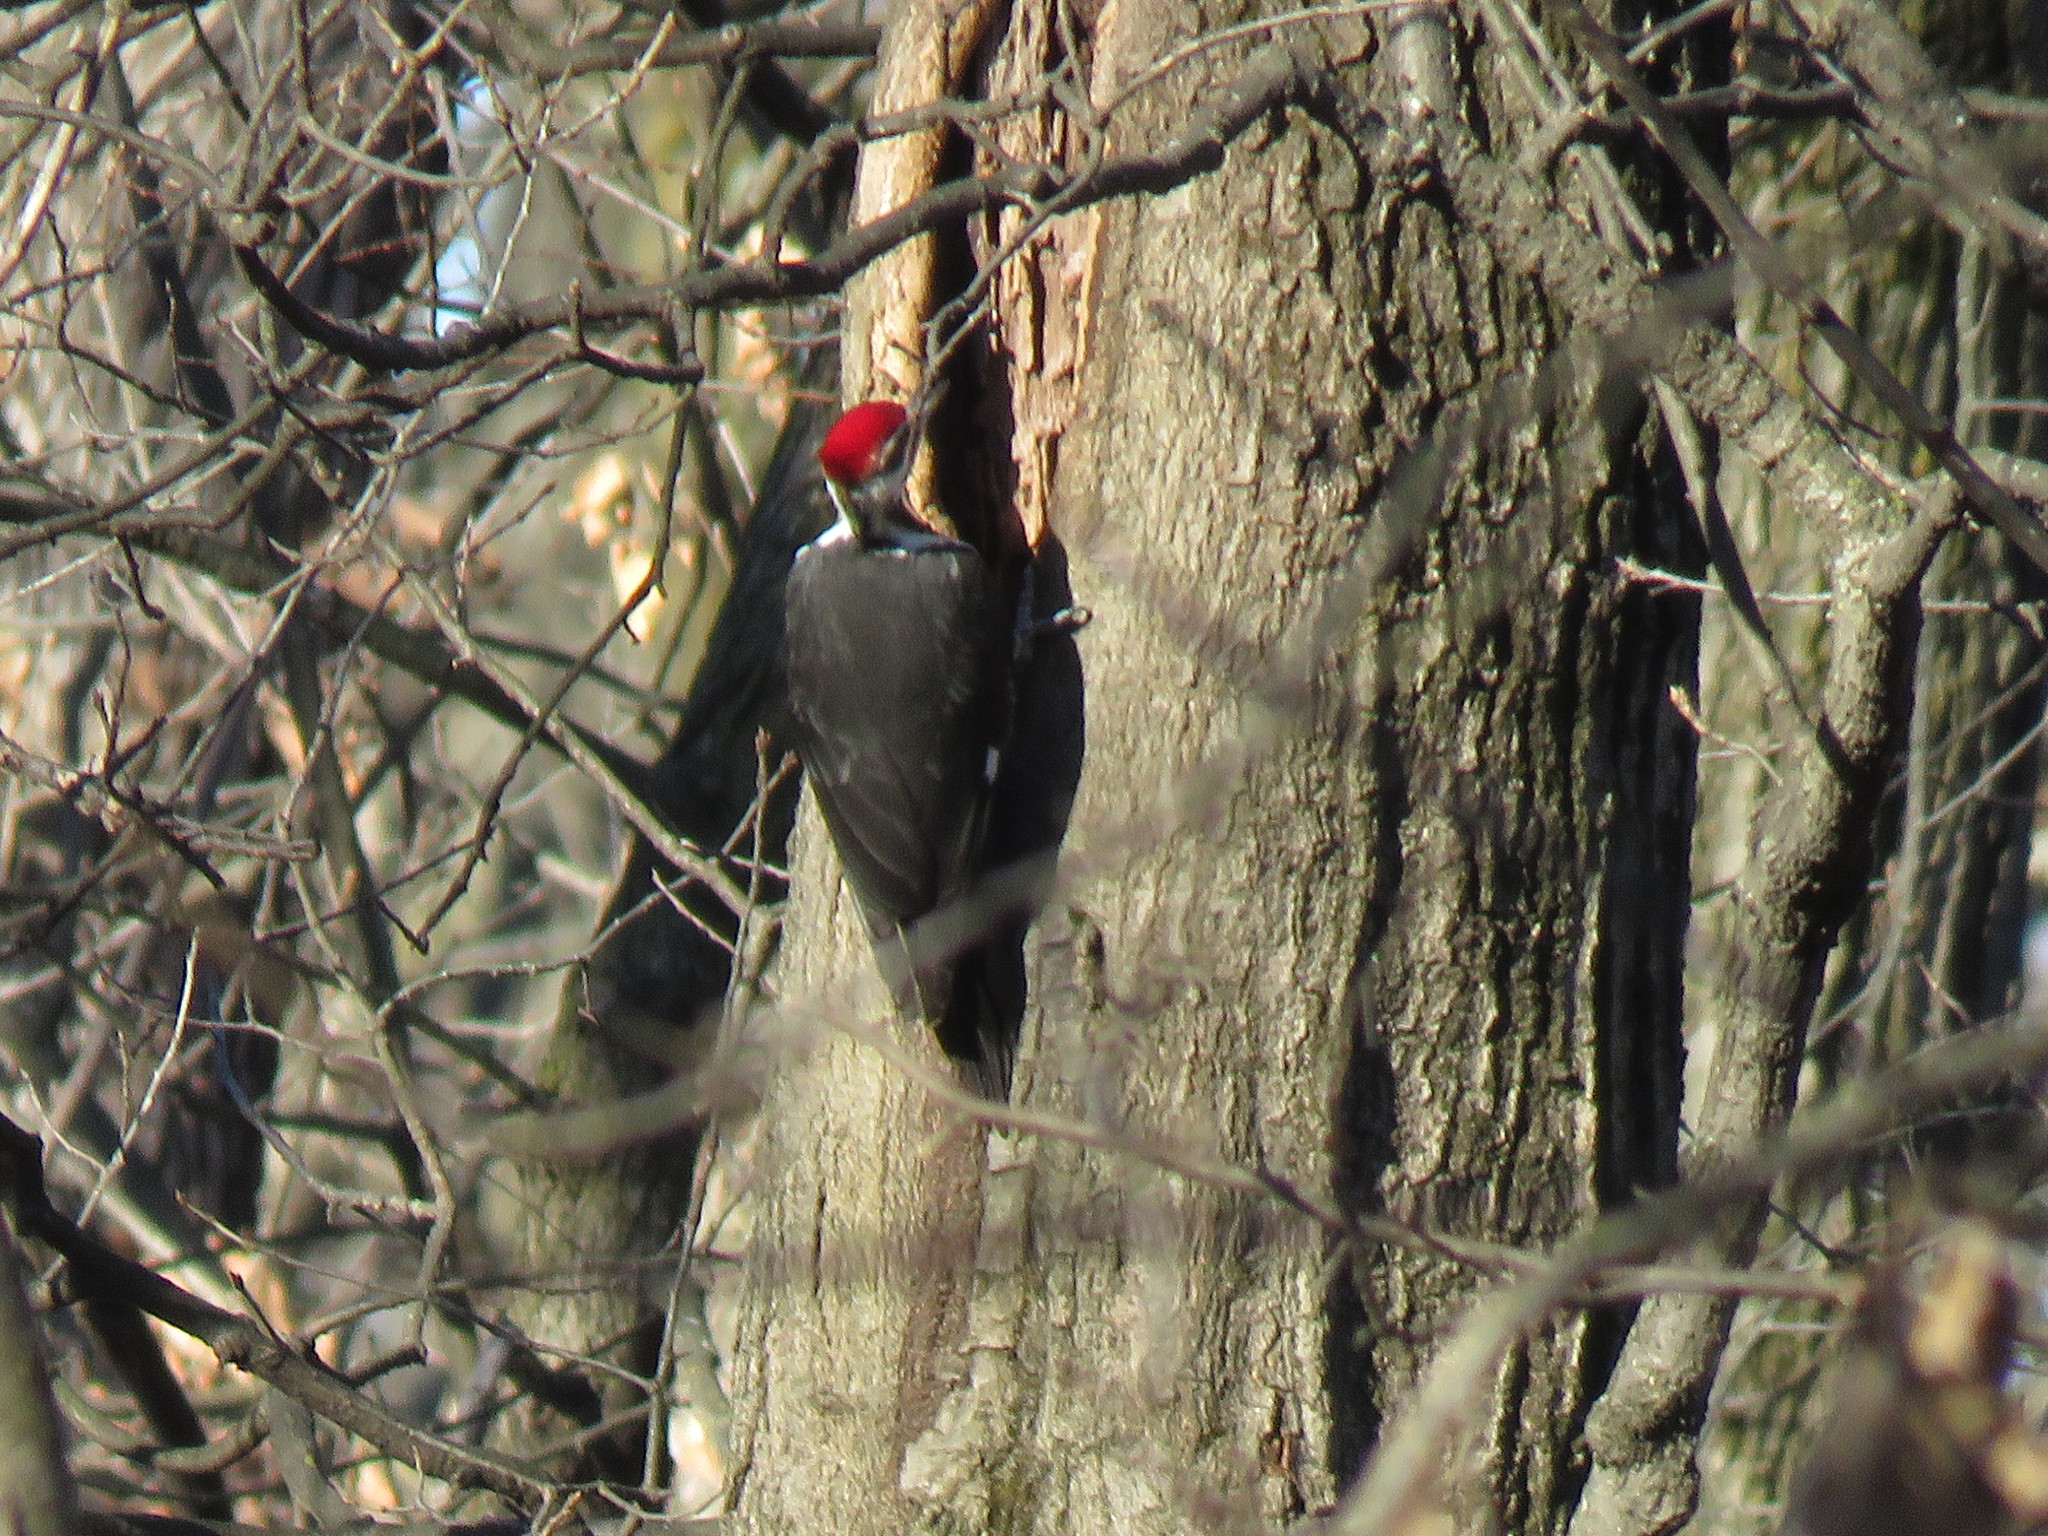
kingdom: Animalia
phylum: Chordata
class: Aves
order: Piciformes
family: Picidae
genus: Dryocopus
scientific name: Dryocopus pileatus
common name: Pileated woodpecker
